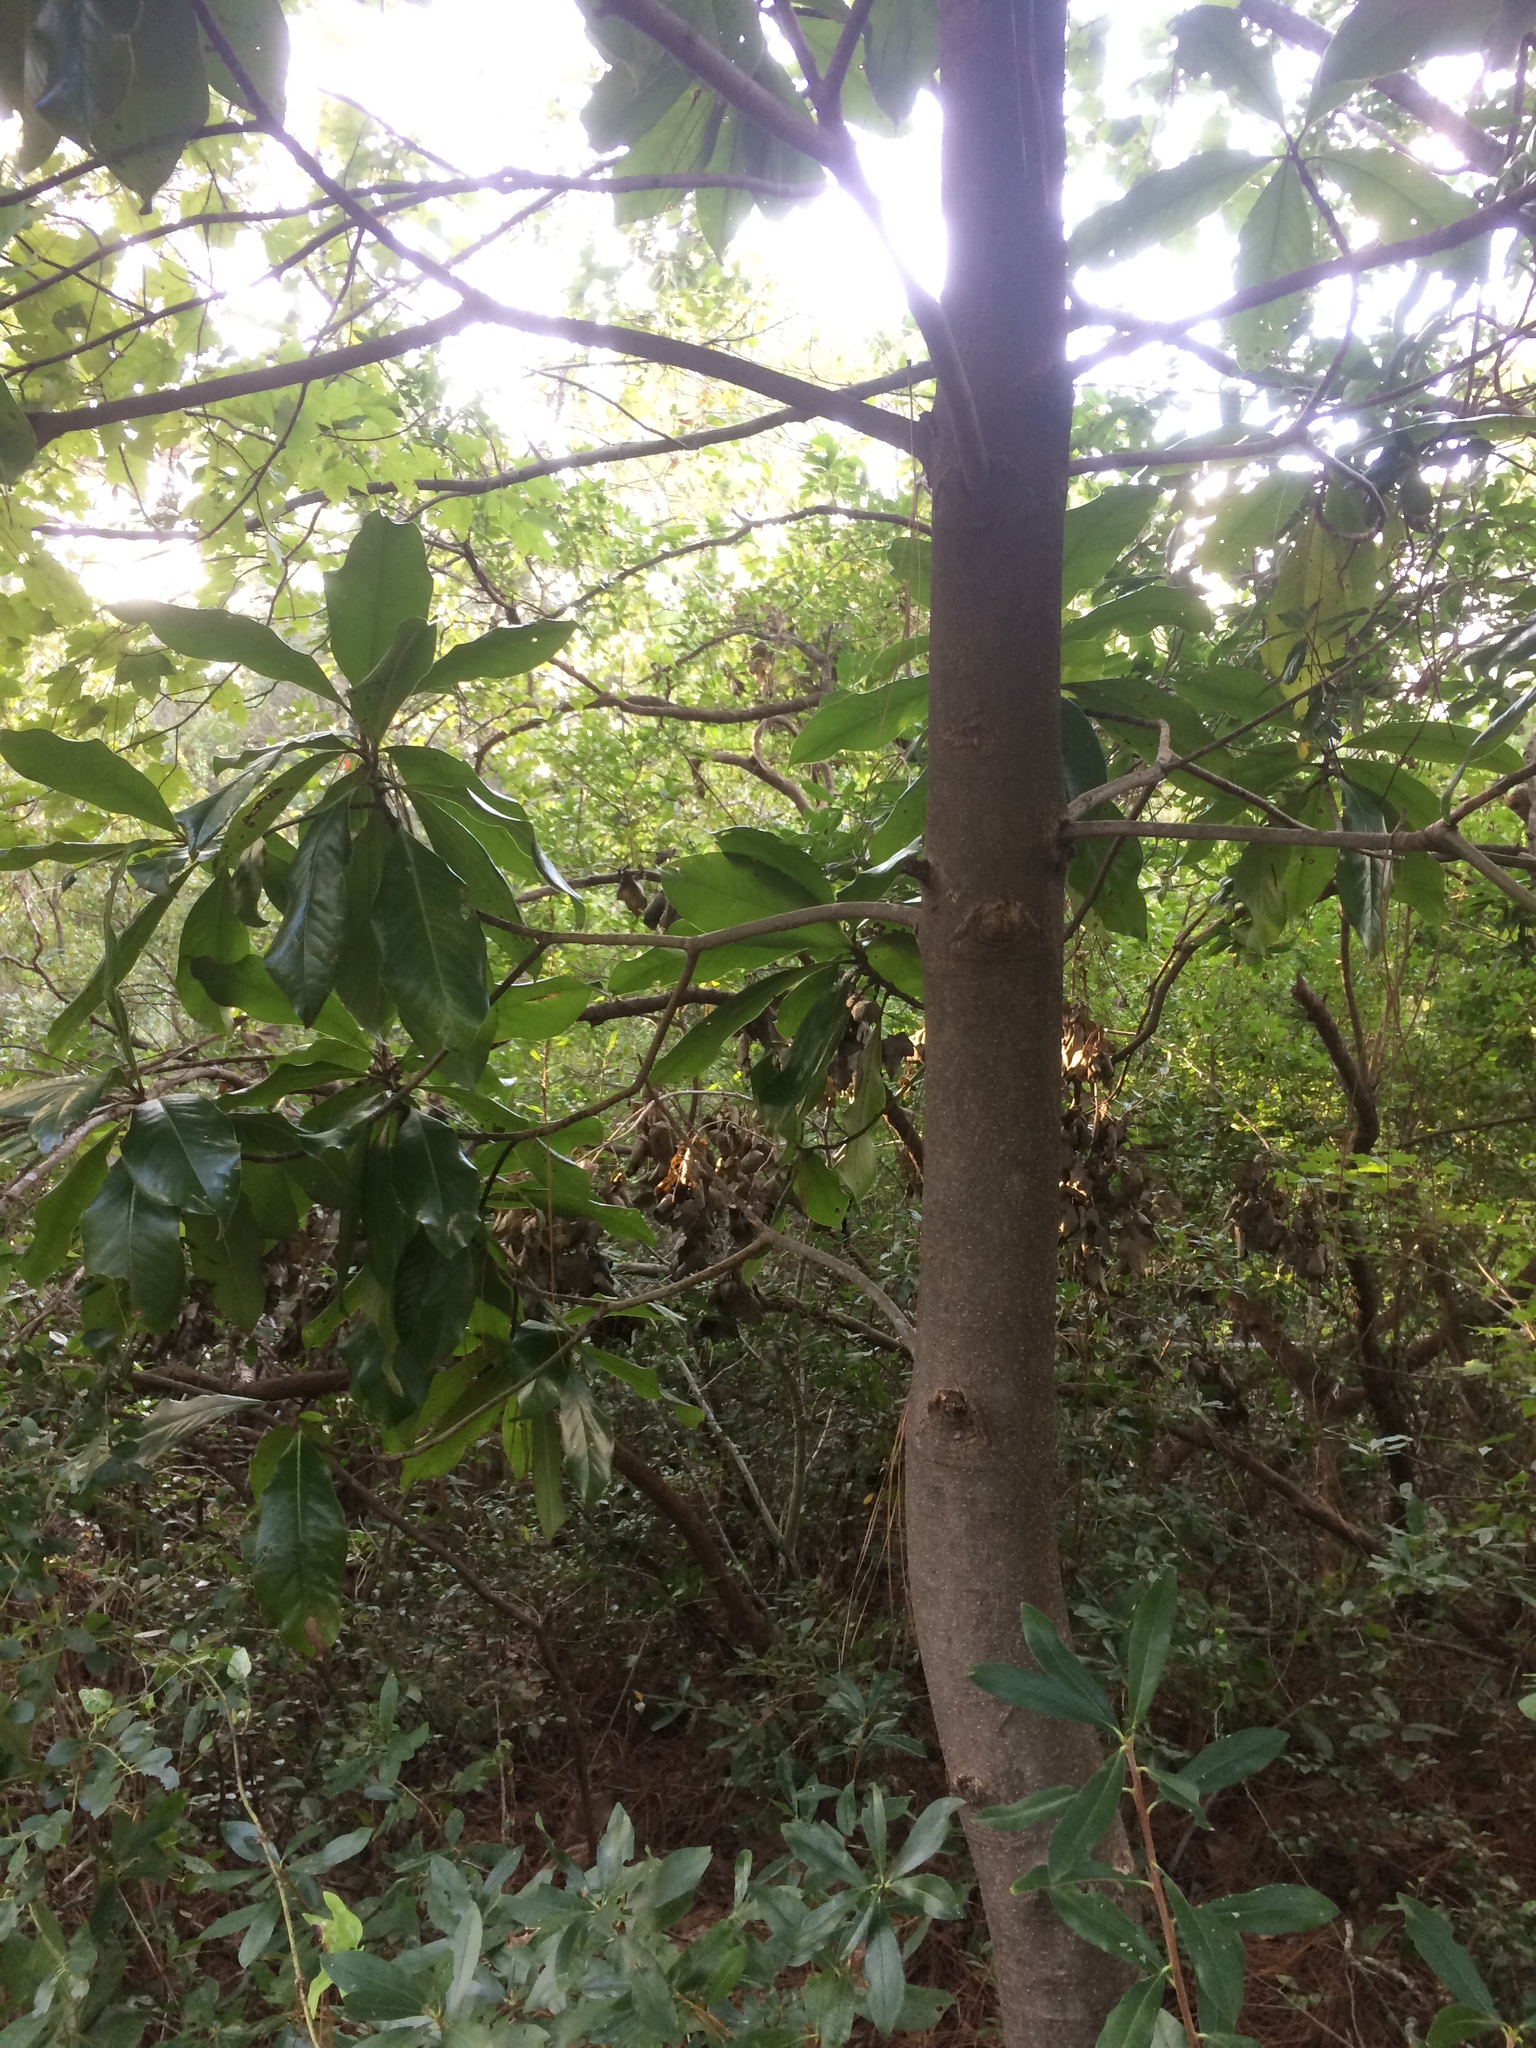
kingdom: Plantae
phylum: Tracheophyta
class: Magnoliopsida
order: Magnoliales
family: Magnoliaceae
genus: Magnolia
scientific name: Magnolia grandiflora
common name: Southern magnolia
